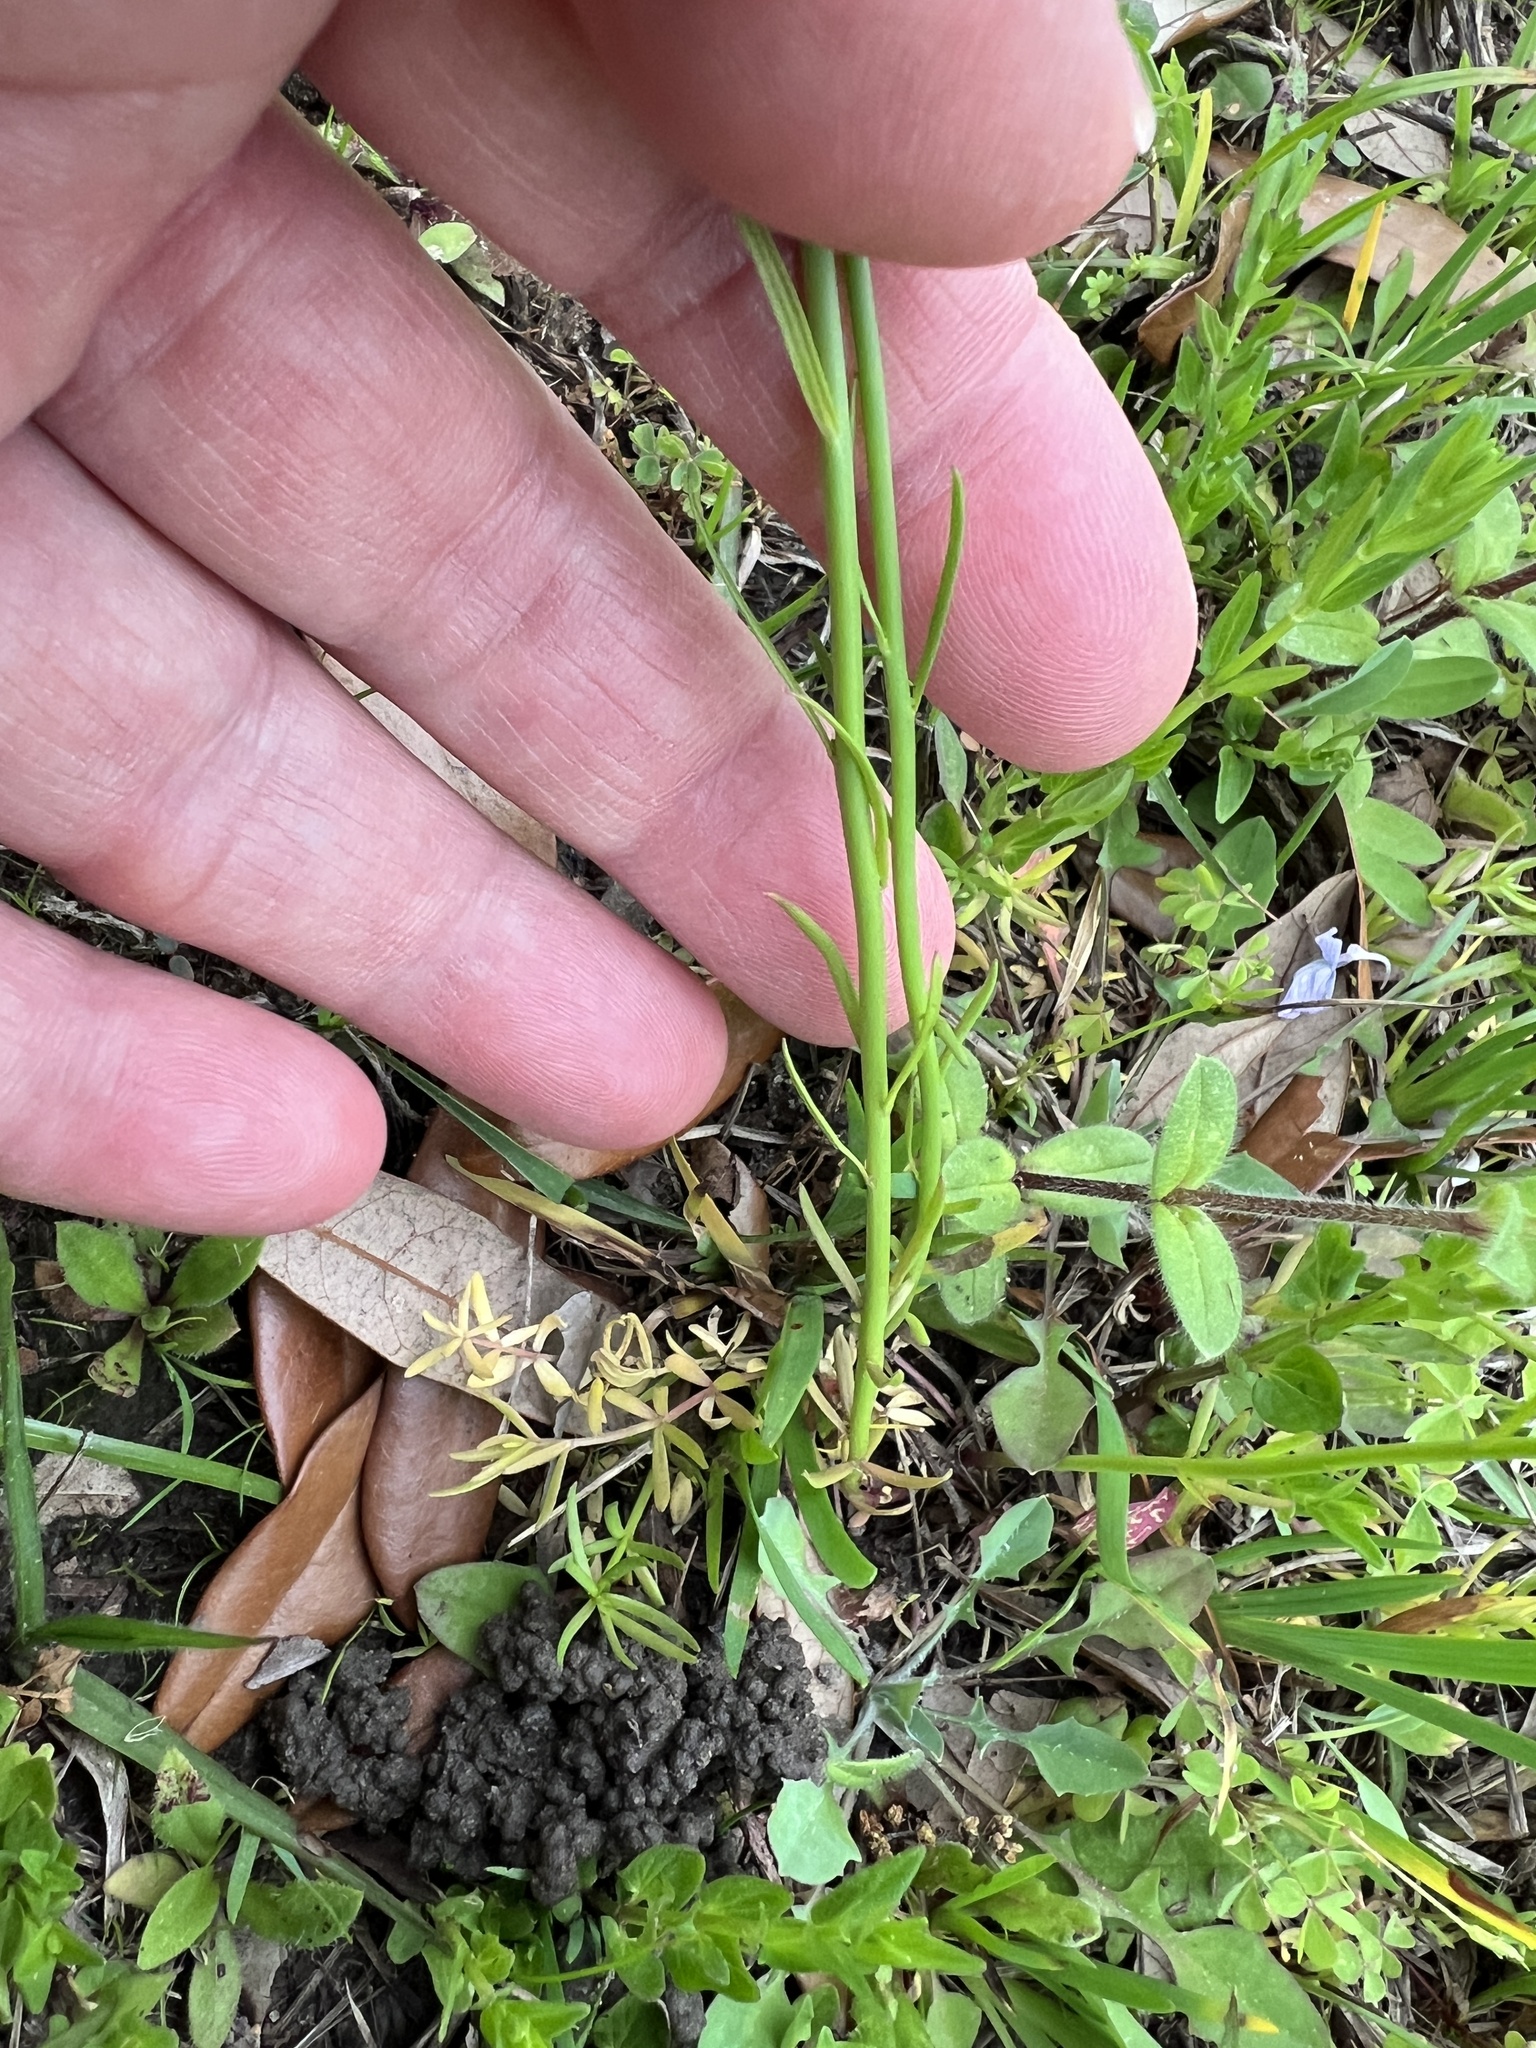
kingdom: Plantae
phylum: Tracheophyta
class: Magnoliopsida
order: Lamiales
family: Plantaginaceae
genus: Nuttallanthus
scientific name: Nuttallanthus texanus
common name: Texas toadflax
